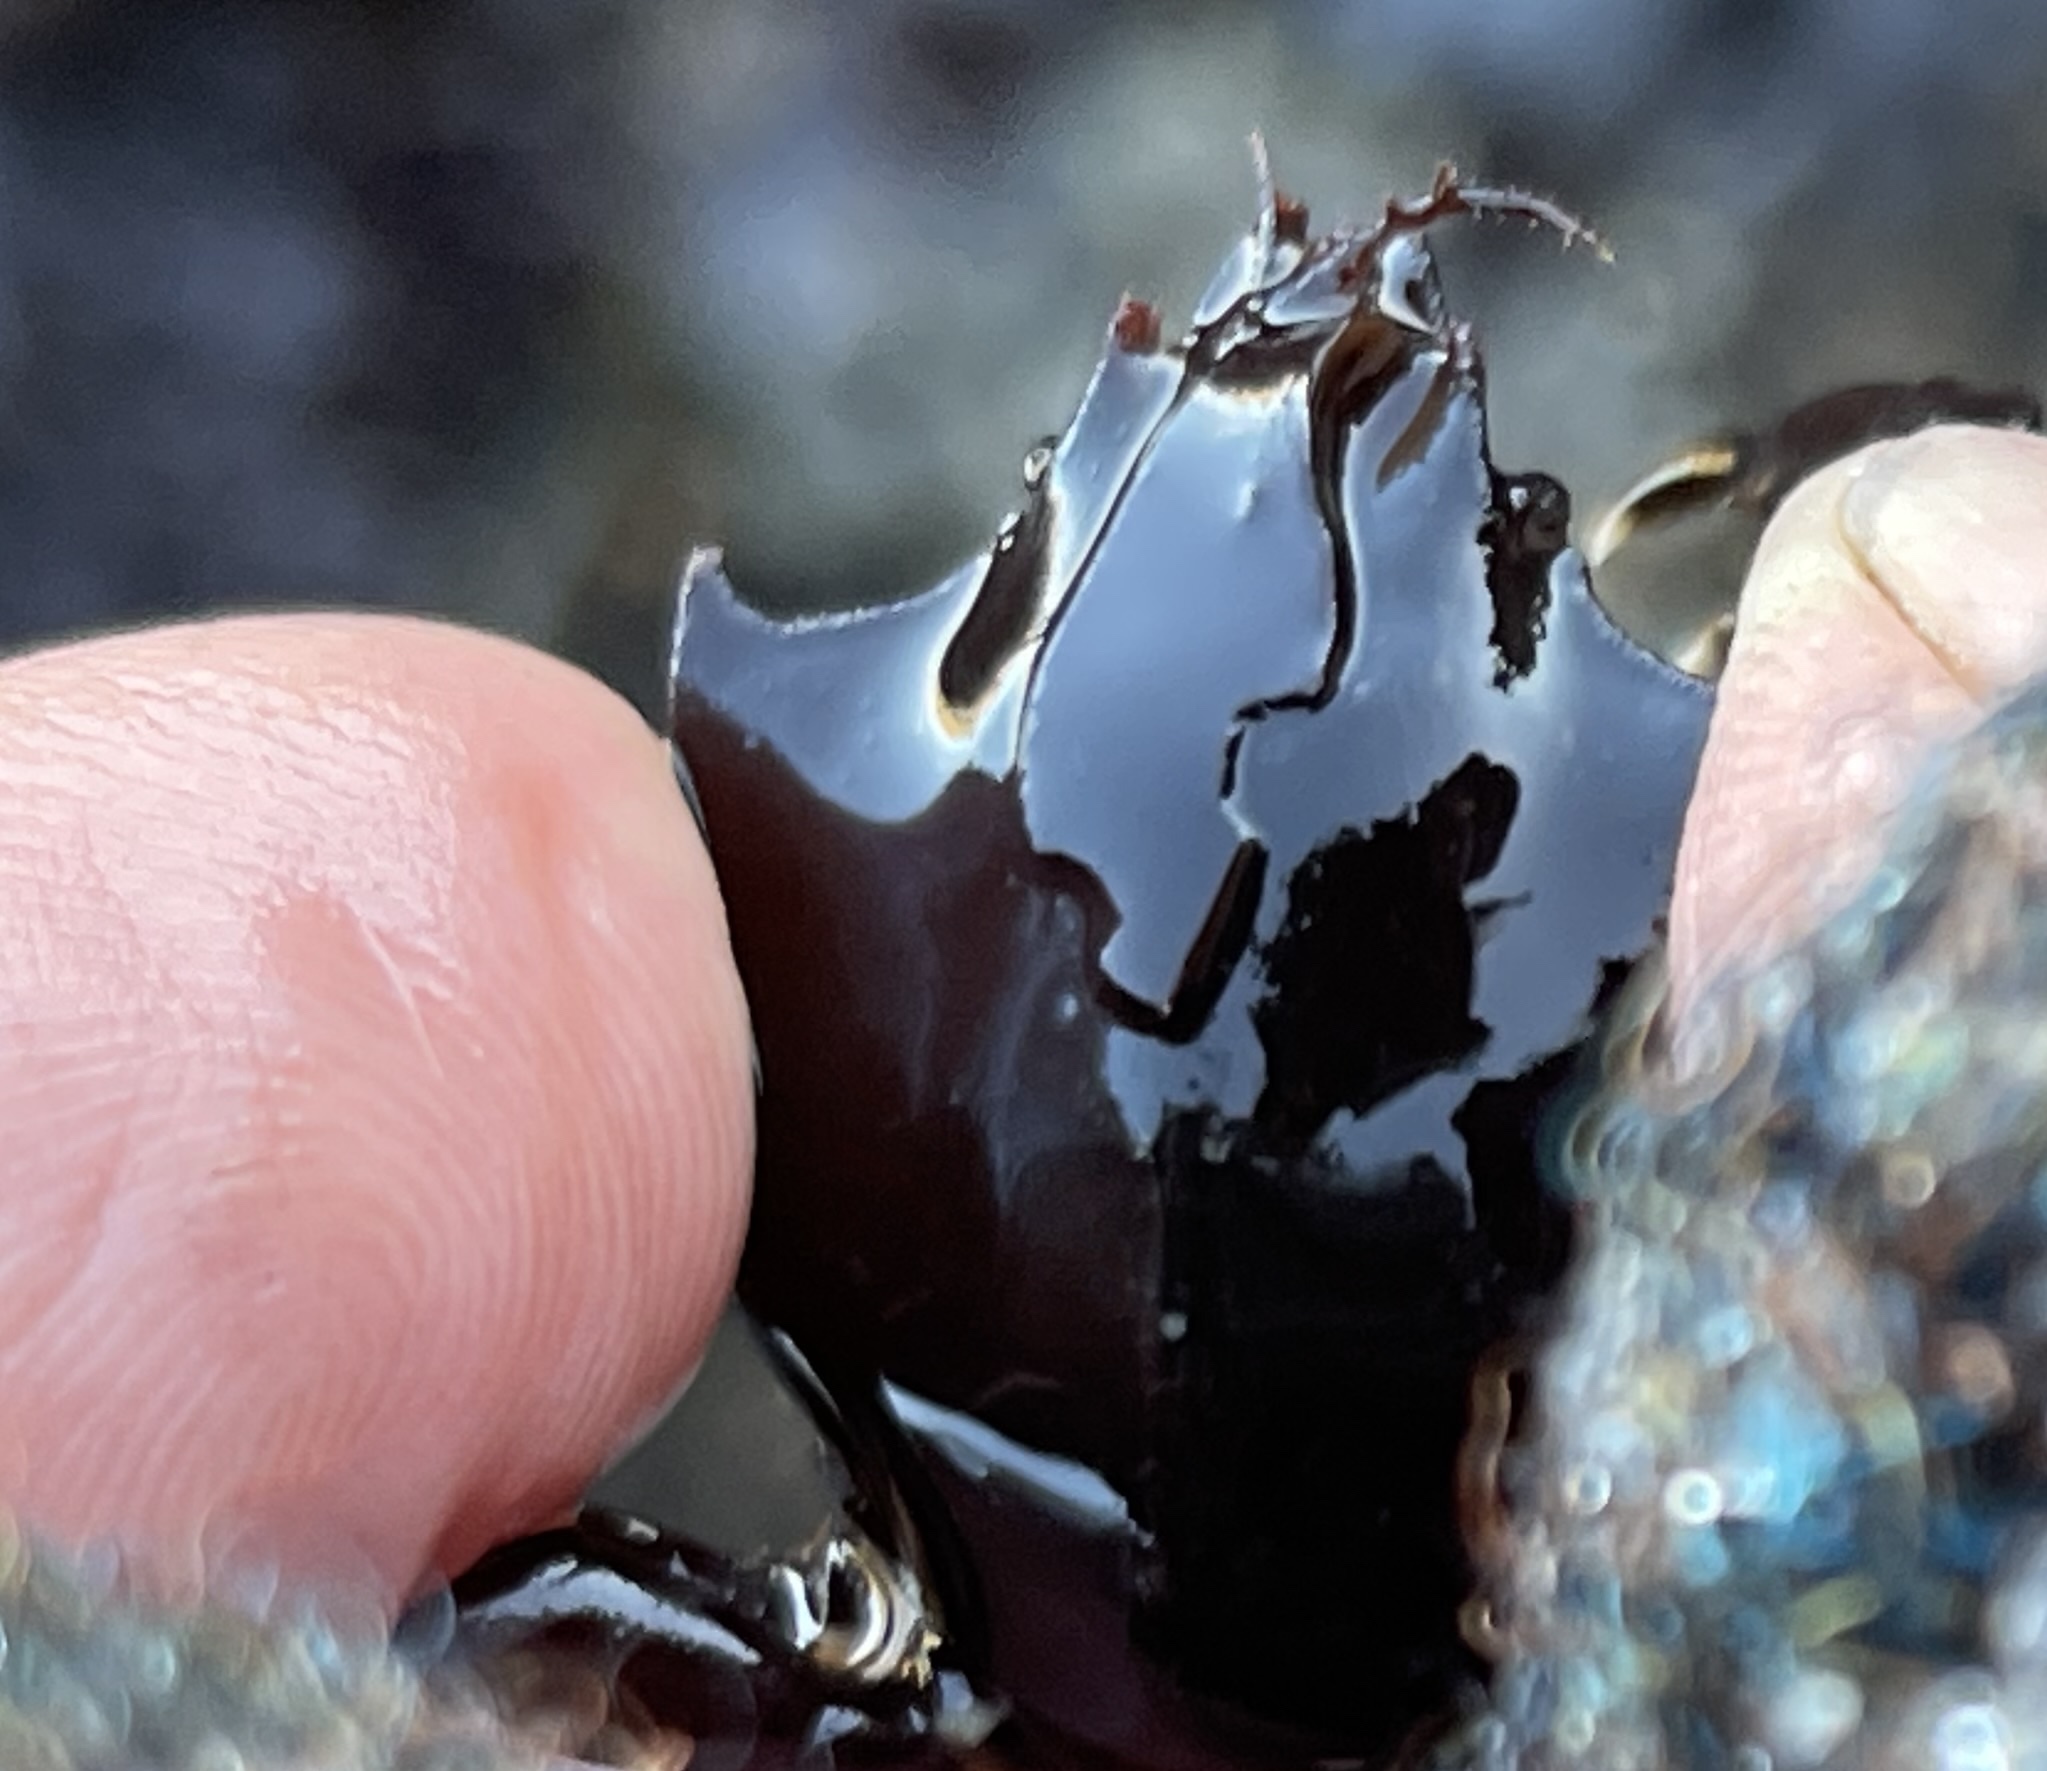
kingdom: Animalia
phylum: Arthropoda
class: Malacostraca
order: Decapoda
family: Epialtidae
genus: Pugettia
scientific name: Pugettia producta
